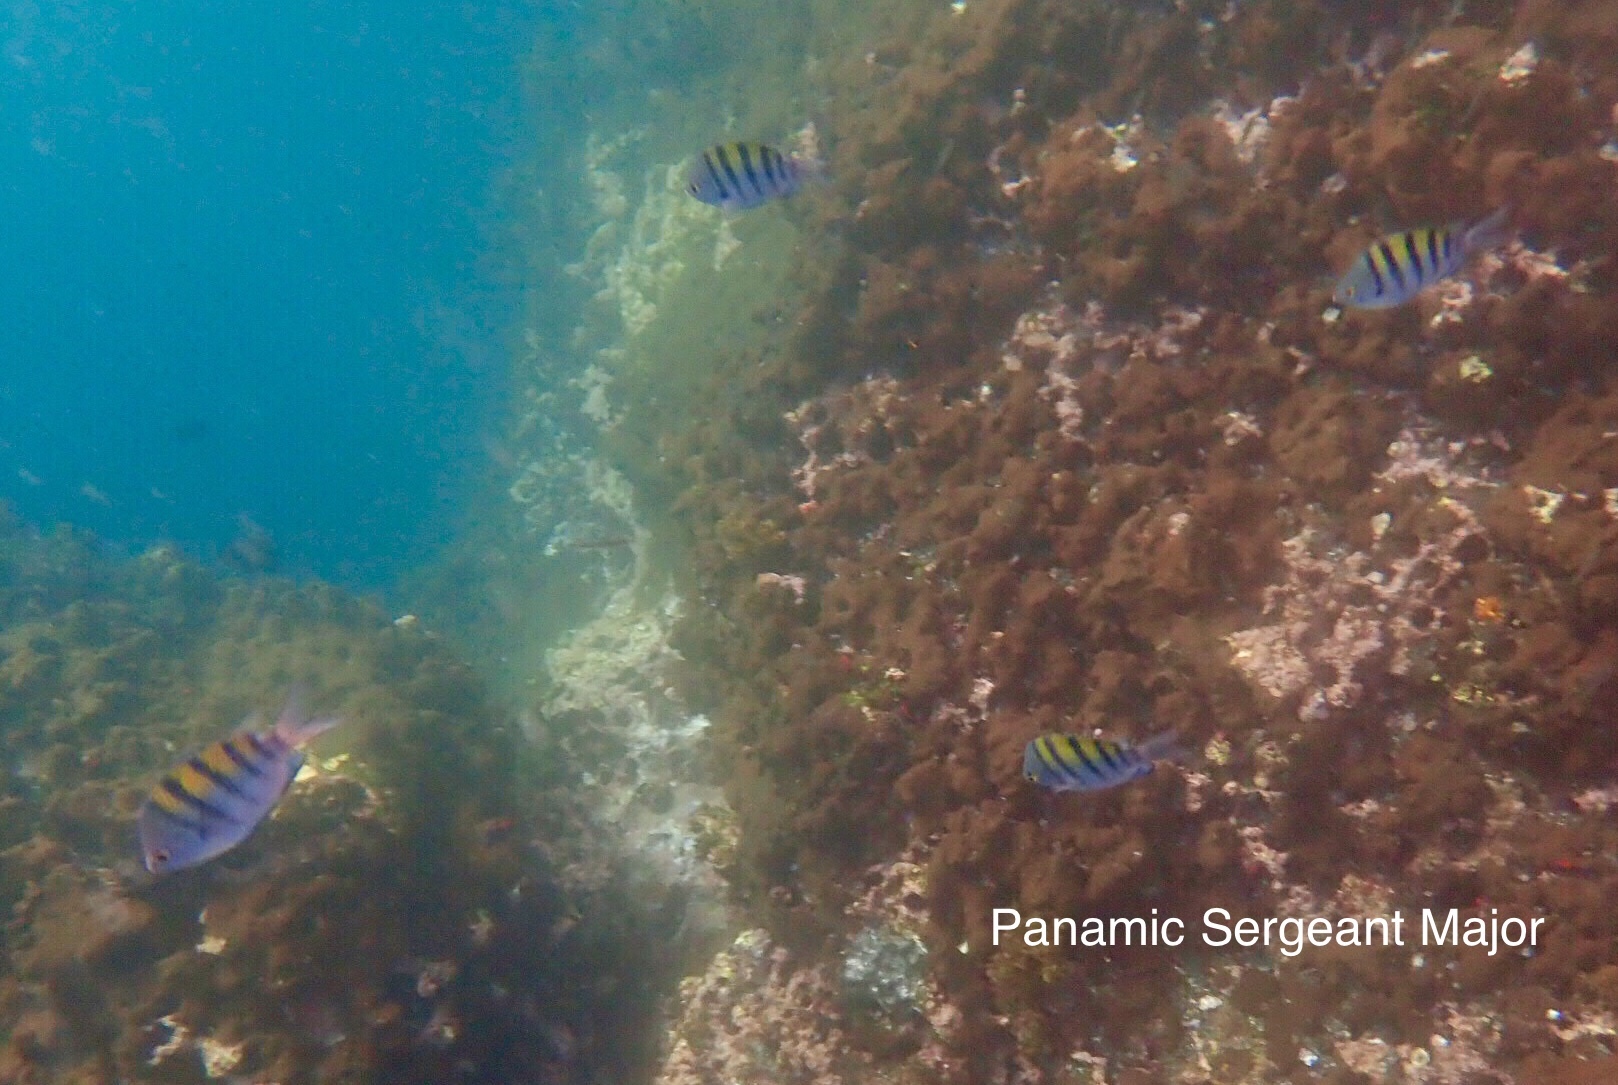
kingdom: Animalia
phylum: Chordata
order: Perciformes
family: Pomacentridae
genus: Abudefduf
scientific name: Abudefduf troschelii
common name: Panamic sergeant major
